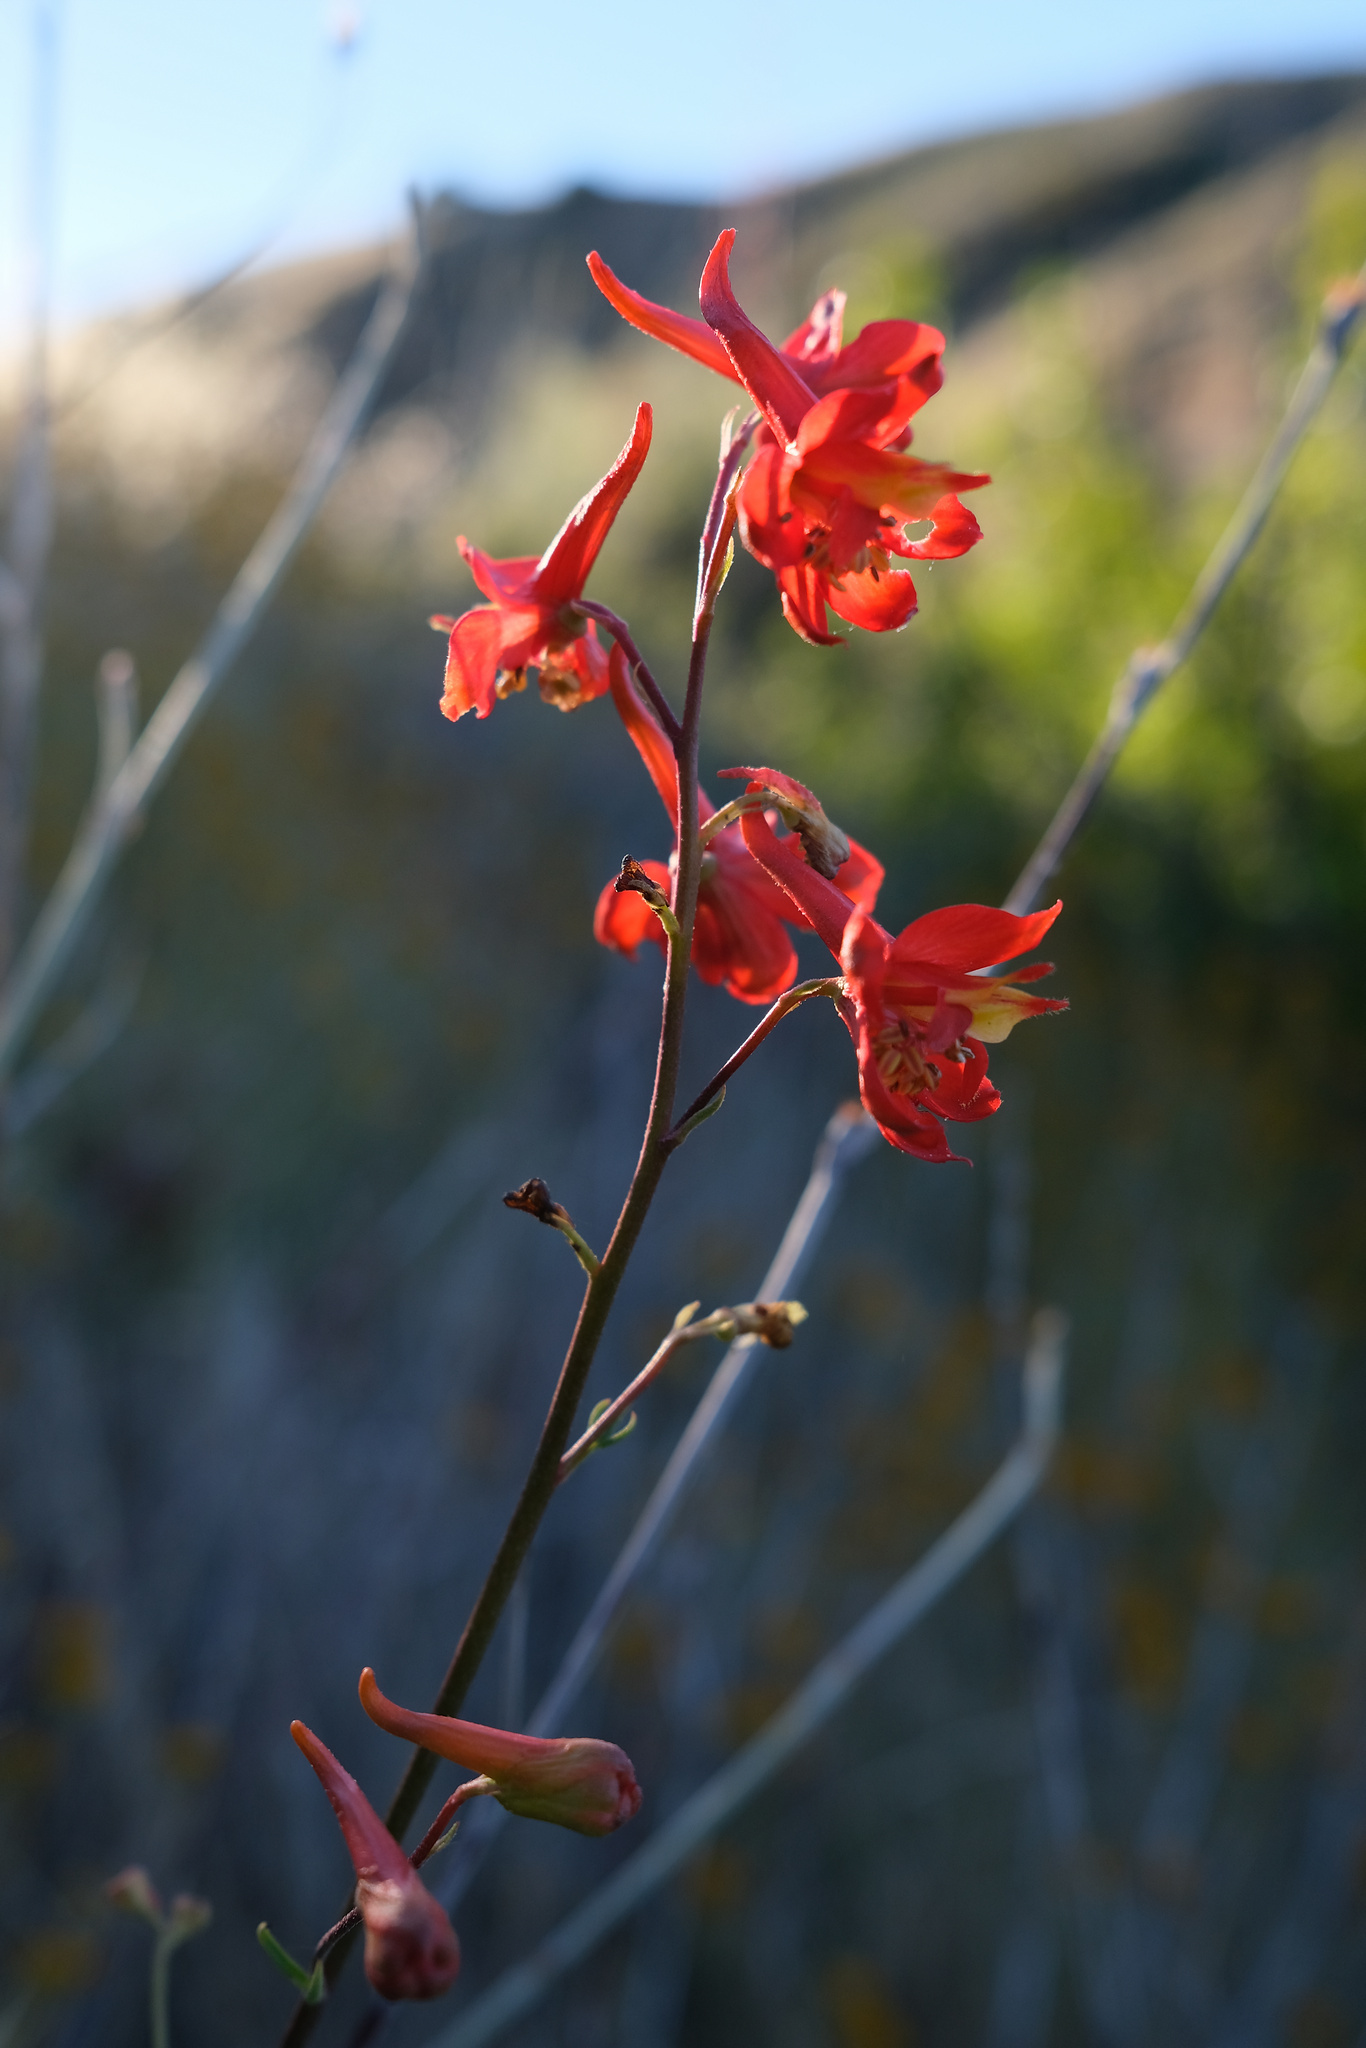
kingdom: Plantae
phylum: Tracheophyta
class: Magnoliopsida
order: Ranunculales
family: Ranunculaceae
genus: Delphinium
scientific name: Delphinium cardinale
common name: Scarlet larkspur
